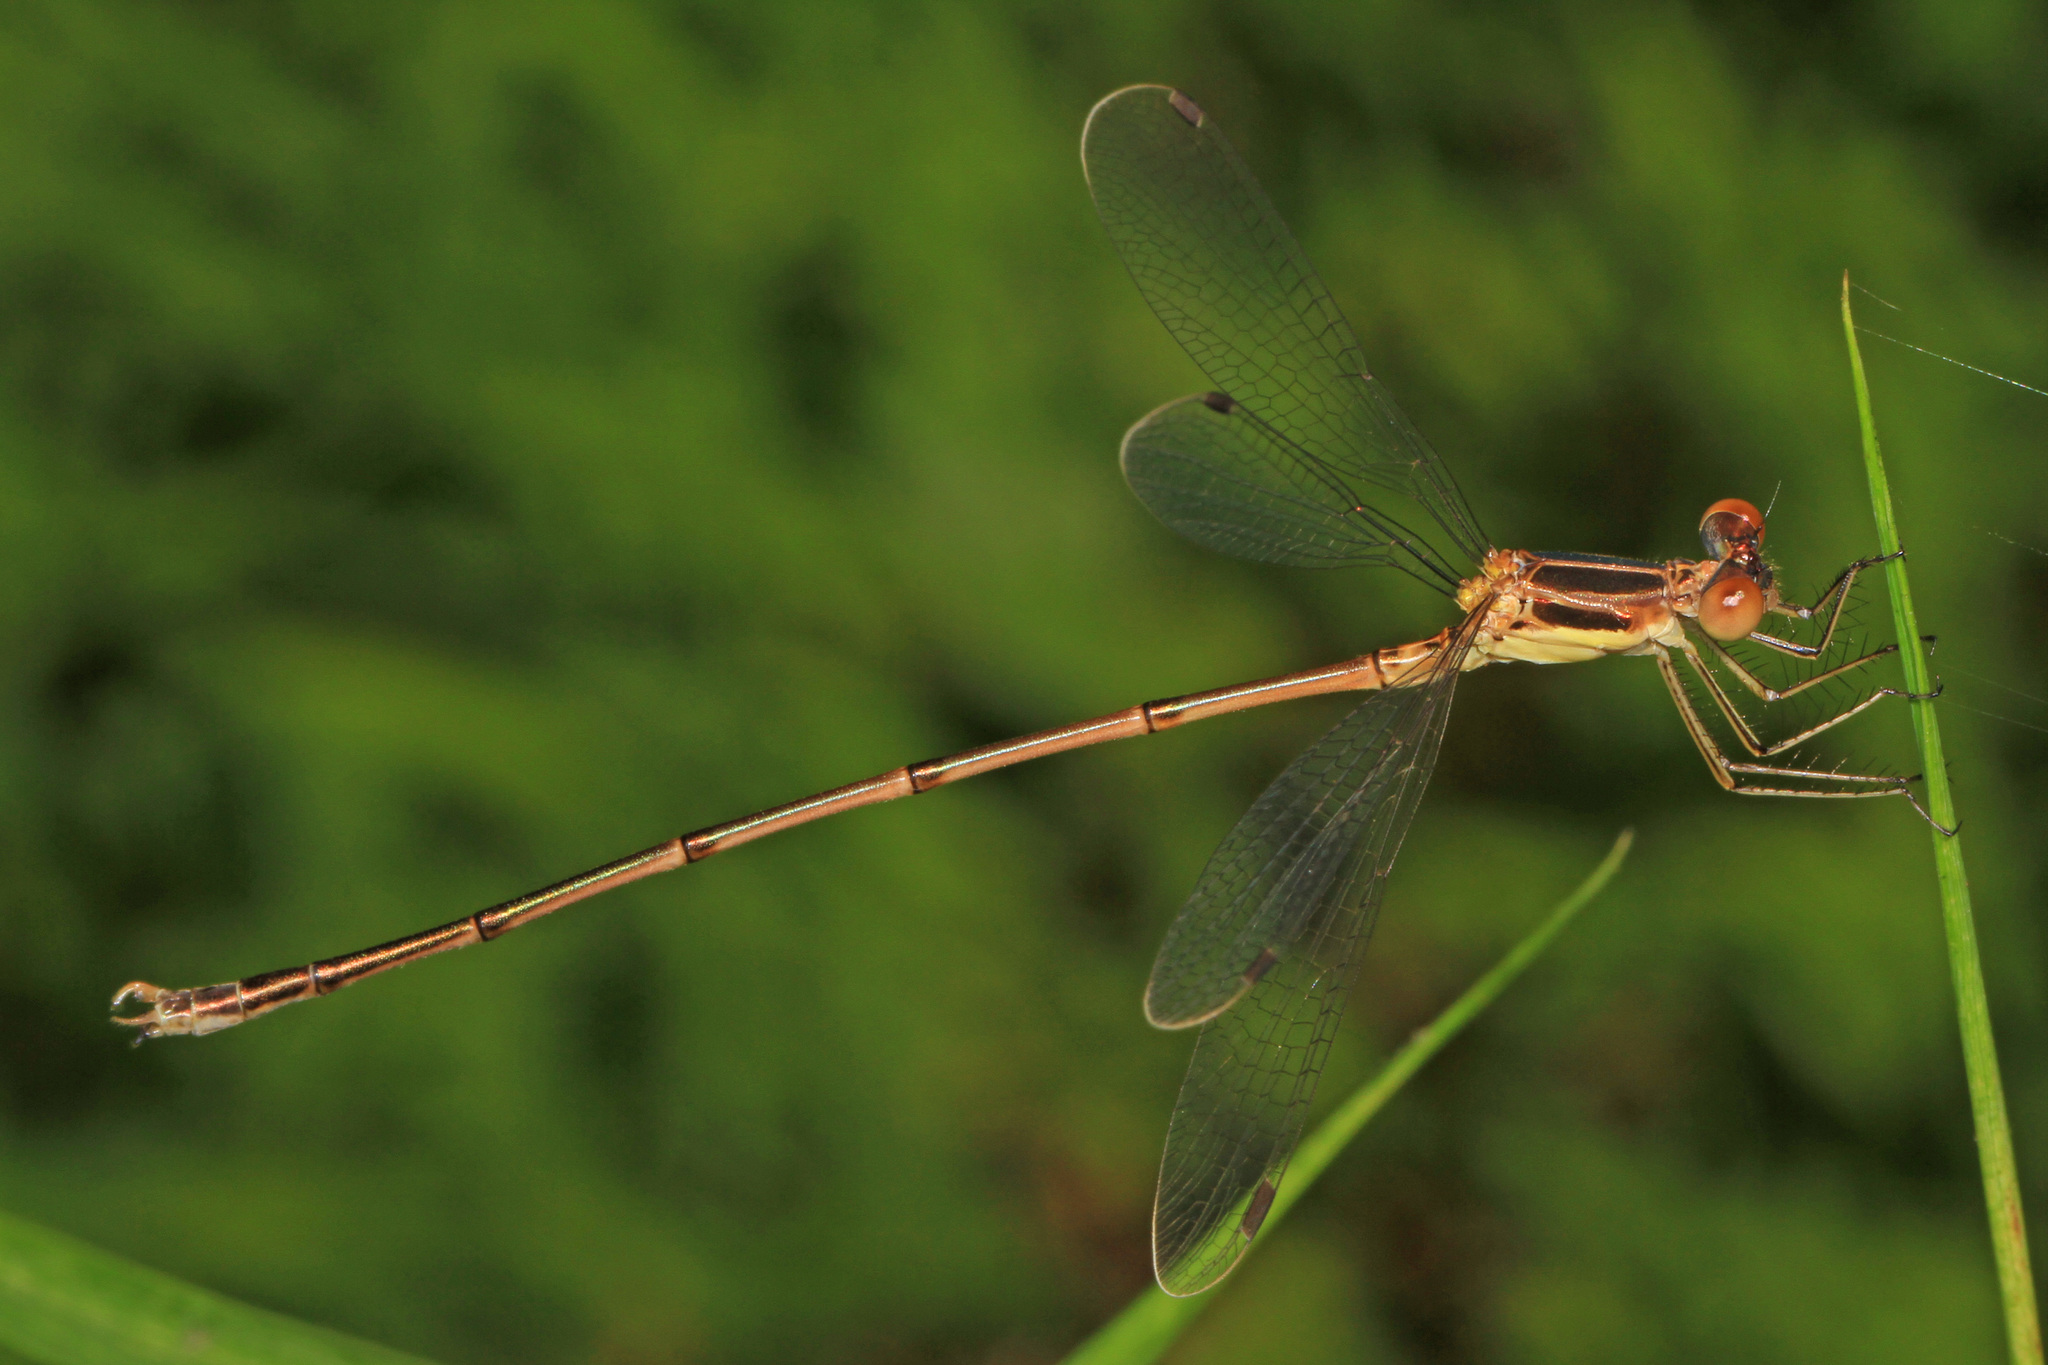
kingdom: Animalia
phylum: Arthropoda
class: Insecta
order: Odonata
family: Lestidae
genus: Lestes
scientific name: Lestes rectangularis
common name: Slender spreadwing
